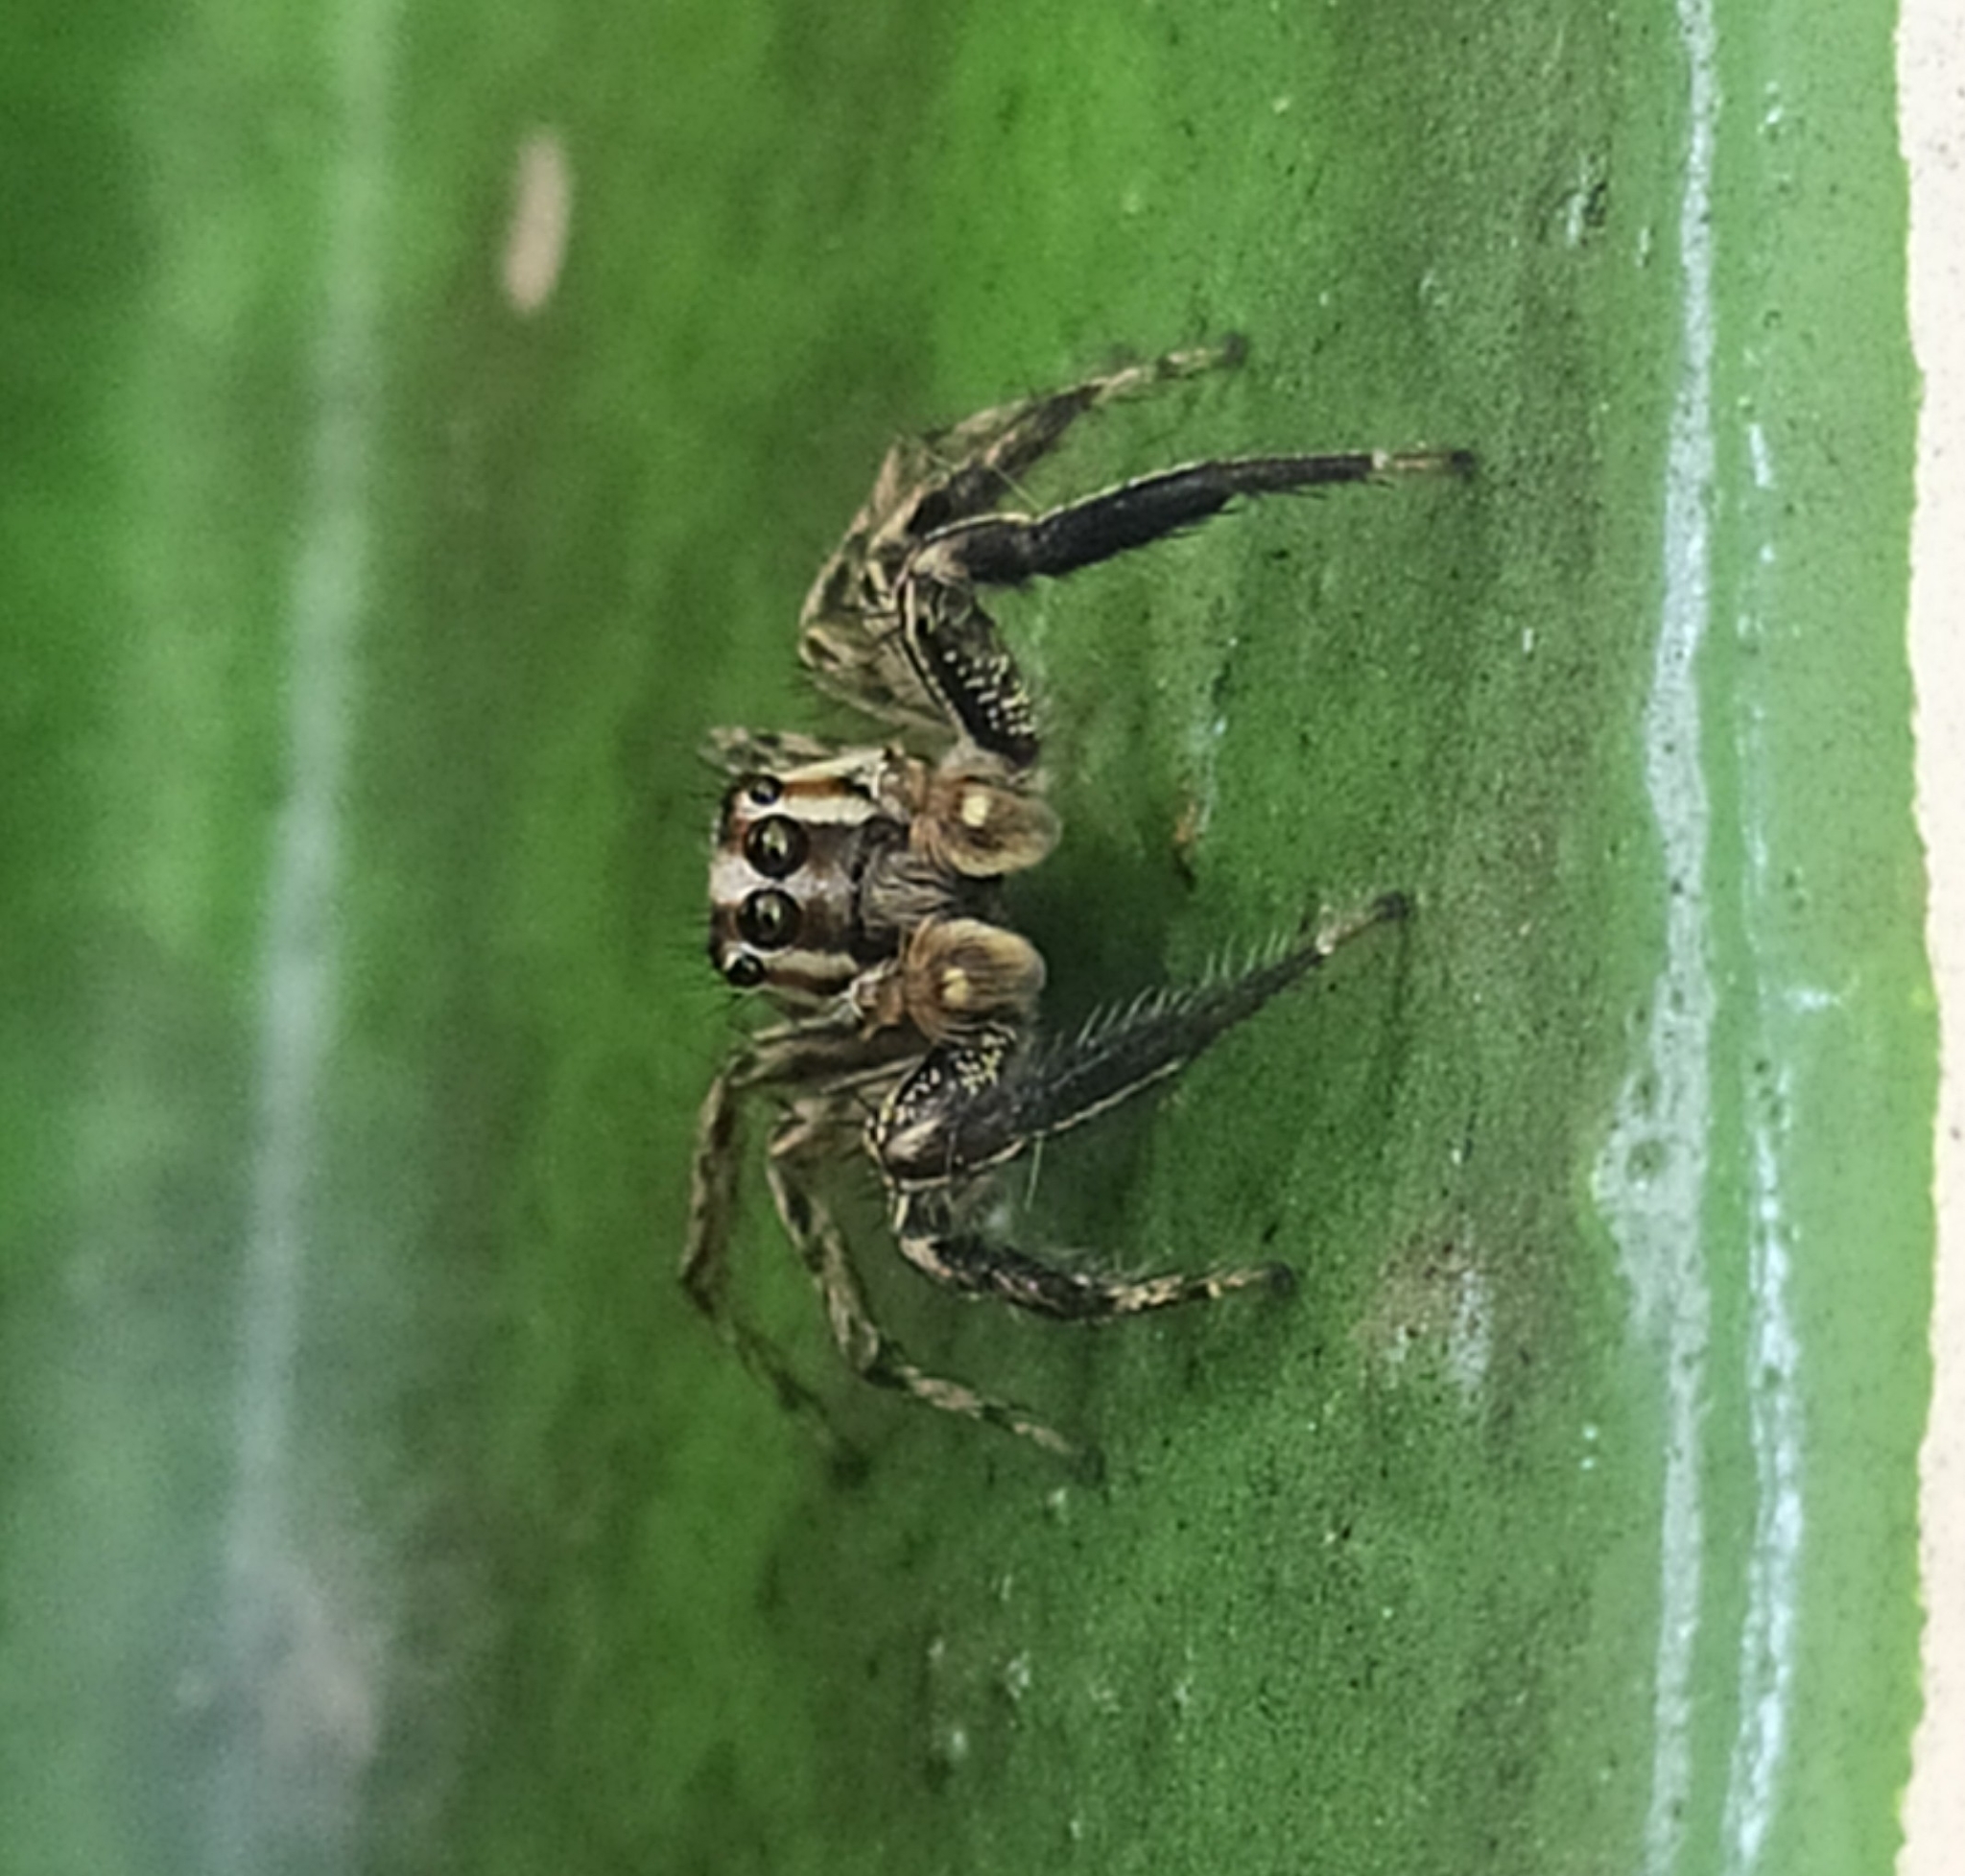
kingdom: Animalia
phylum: Arthropoda
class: Arachnida
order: Araneae
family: Salticidae
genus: Plexippus
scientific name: Plexippus paykulli
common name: Pantropical jumper
